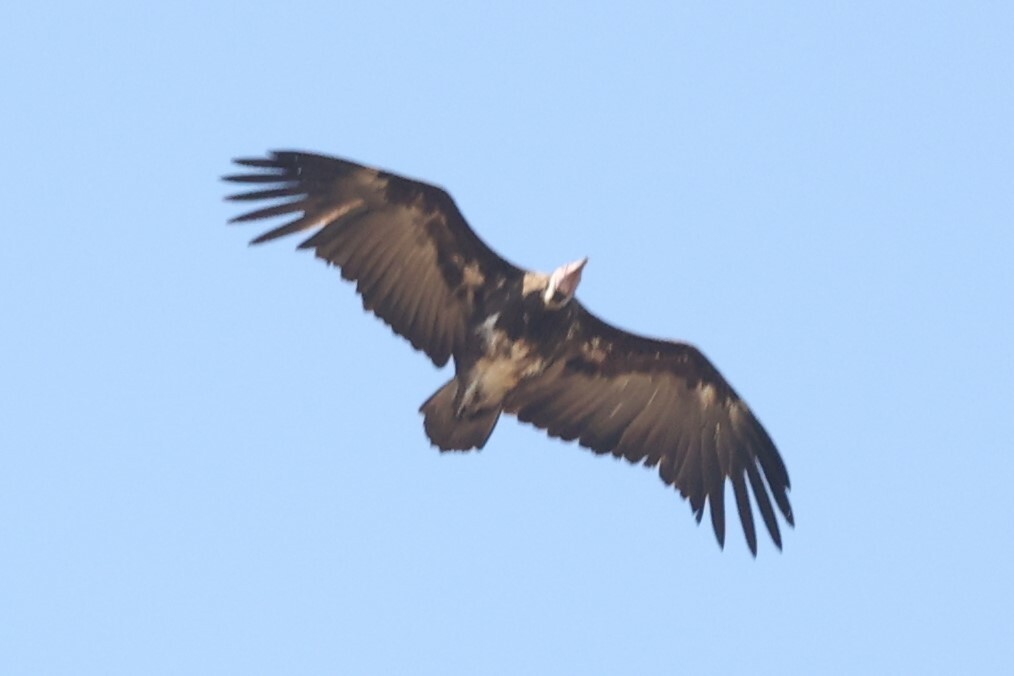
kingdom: Animalia
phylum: Chordata
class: Aves
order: Accipitriformes
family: Accipitridae
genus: Necrosyrtes
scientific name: Necrosyrtes monachus
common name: Hooded vulture
